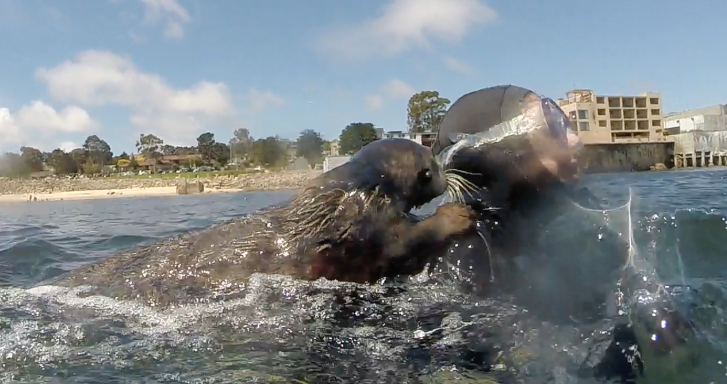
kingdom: Animalia
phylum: Chordata
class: Mammalia
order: Carnivora
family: Mustelidae
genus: Enhydra
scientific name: Enhydra lutris
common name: Sea otter
